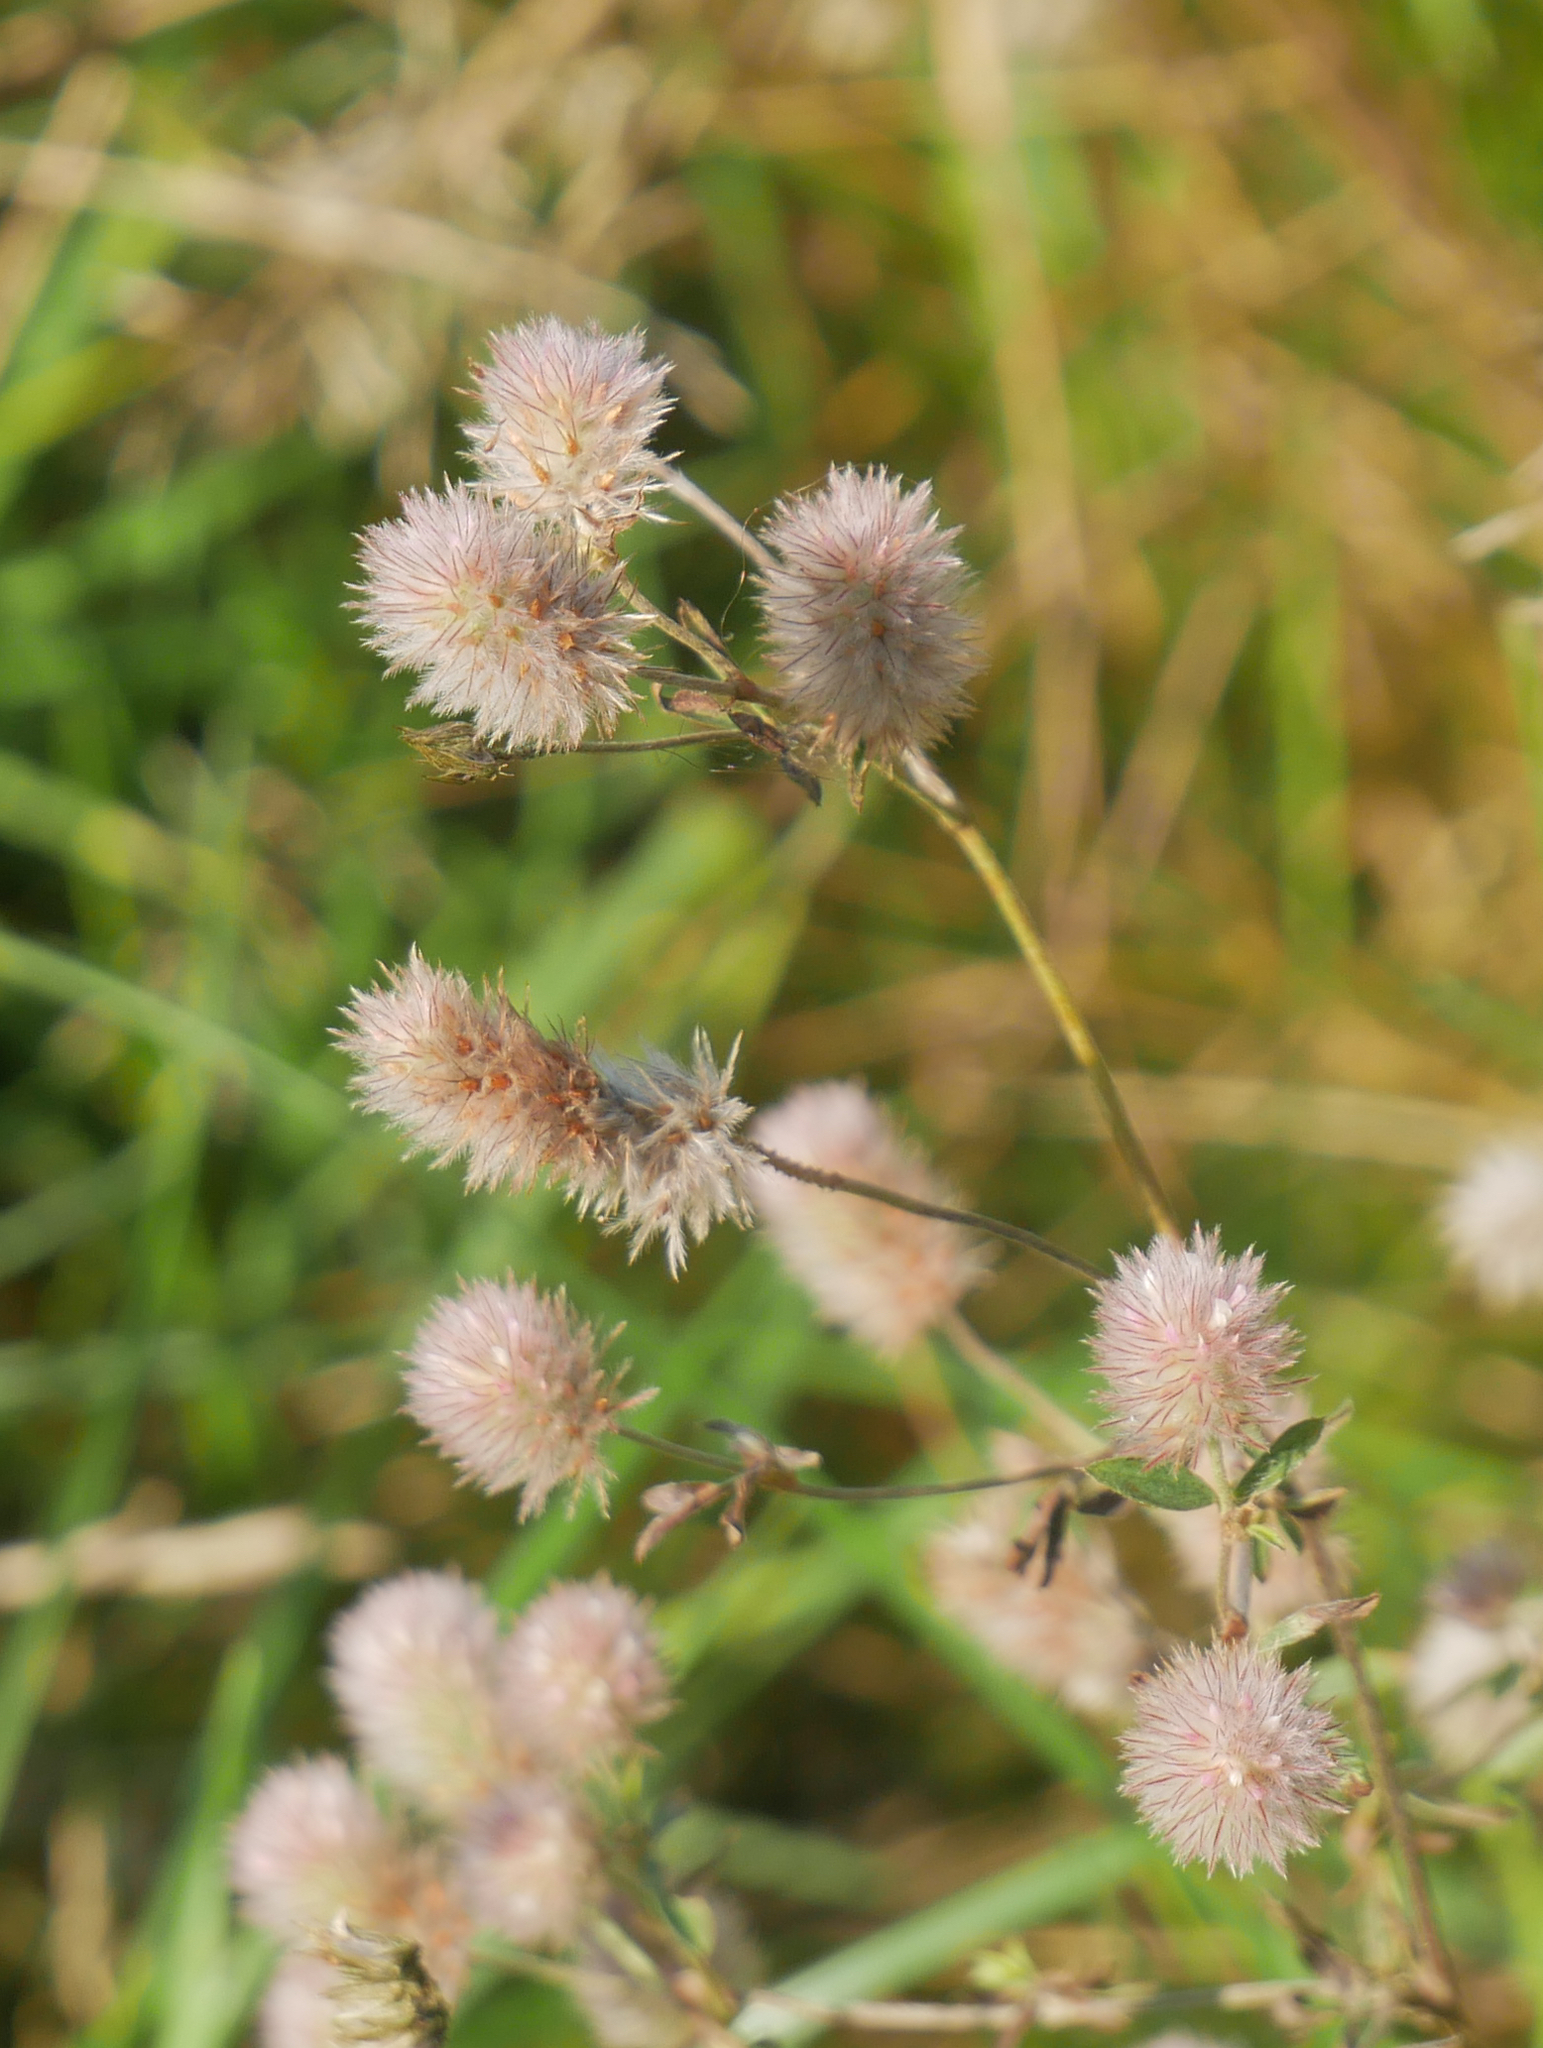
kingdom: Plantae
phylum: Tracheophyta
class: Magnoliopsida
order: Fabales
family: Fabaceae
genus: Trifolium
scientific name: Trifolium arvense
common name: Hare's-foot clover
